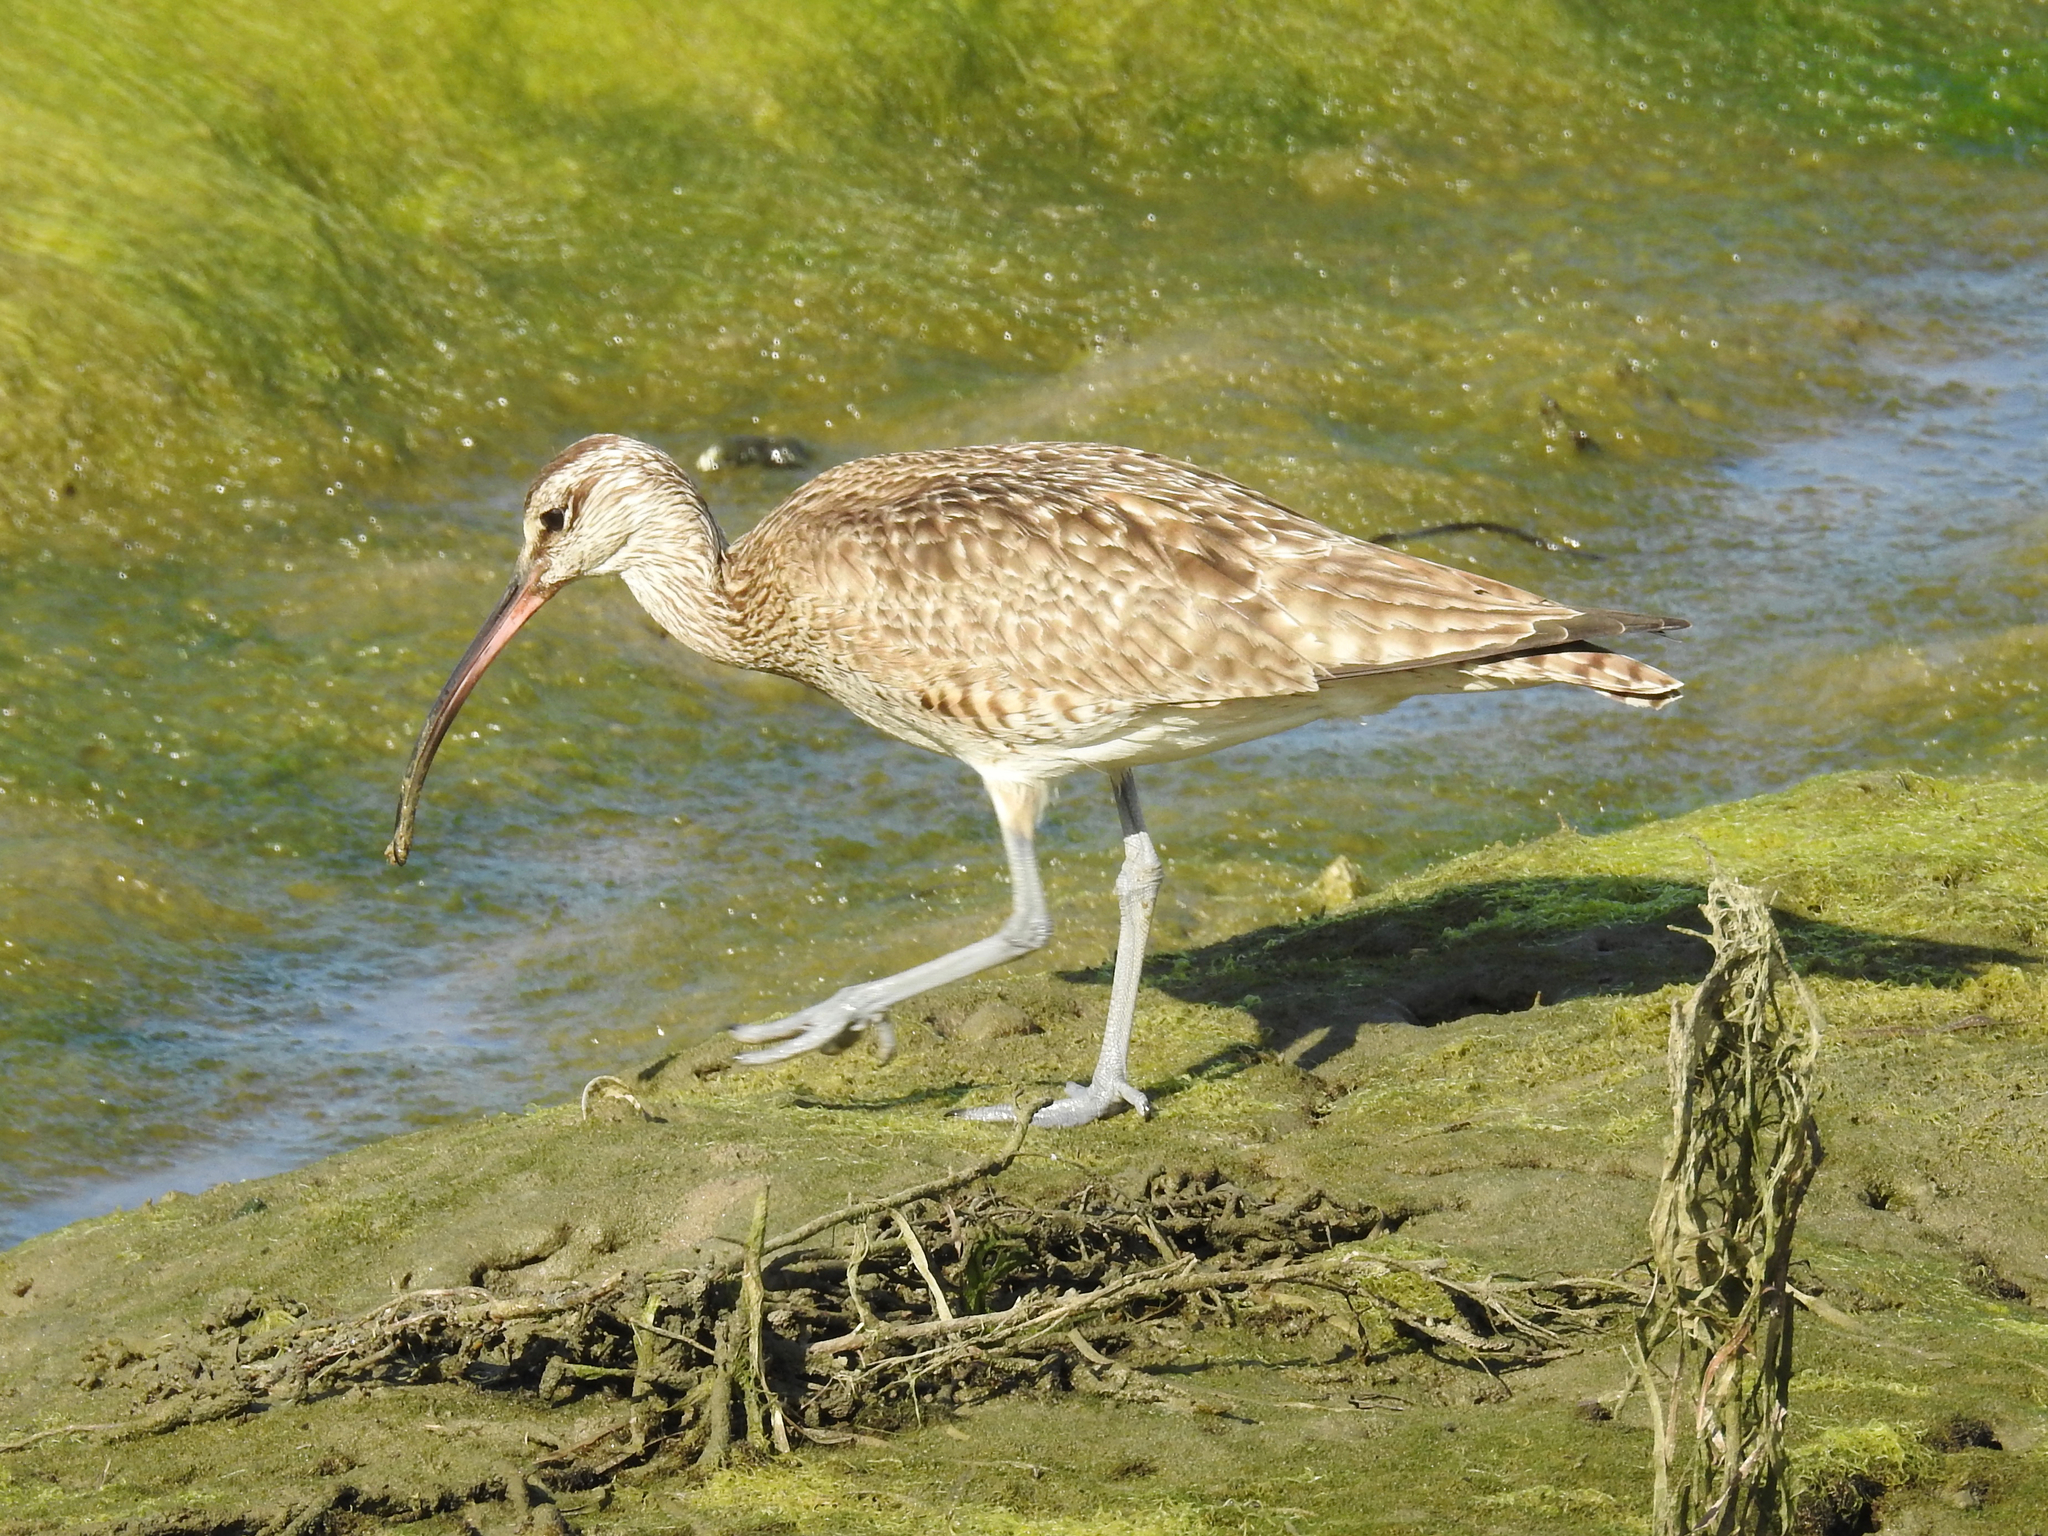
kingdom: Animalia
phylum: Chordata
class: Aves
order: Charadriiformes
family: Scolopacidae
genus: Numenius
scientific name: Numenius phaeopus
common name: Whimbrel
